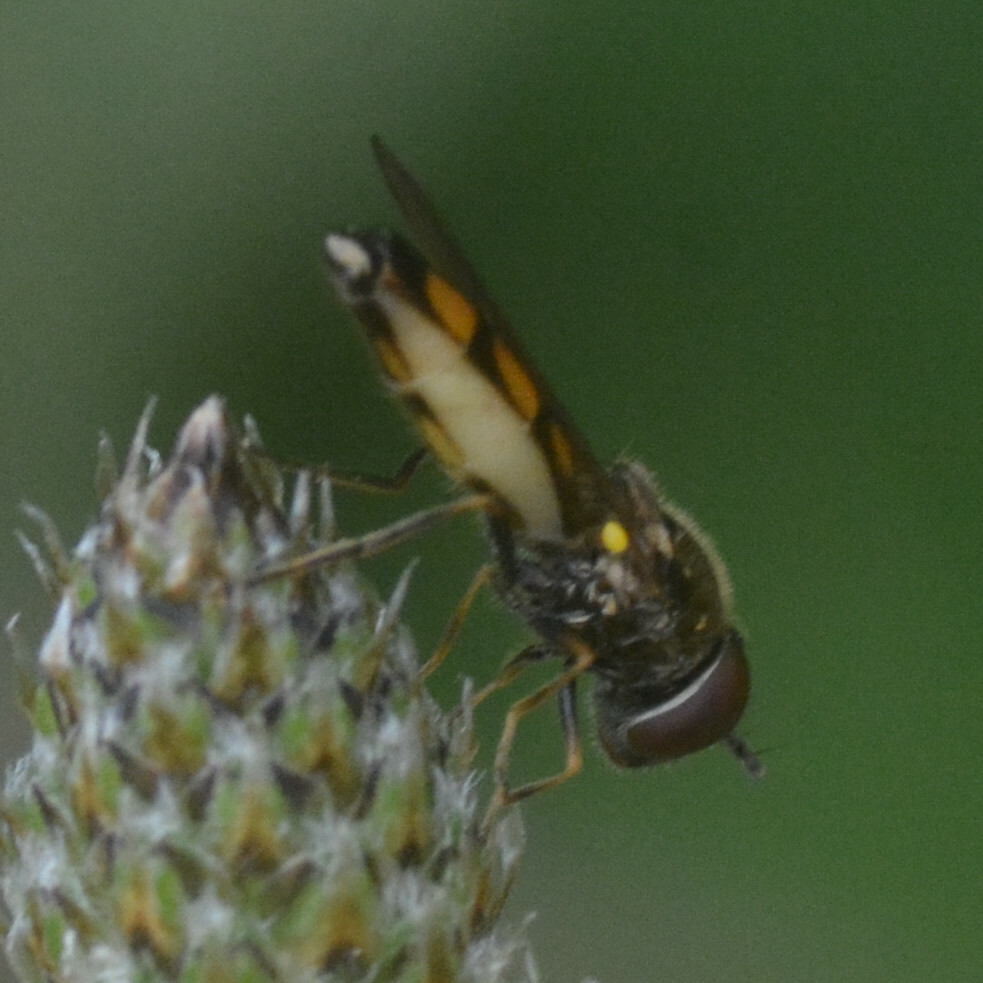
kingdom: Animalia
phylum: Arthropoda
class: Insecta
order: Diptera
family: Syrphidae
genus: Melanostoma
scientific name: Melanostoma mellina
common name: Hover fly
